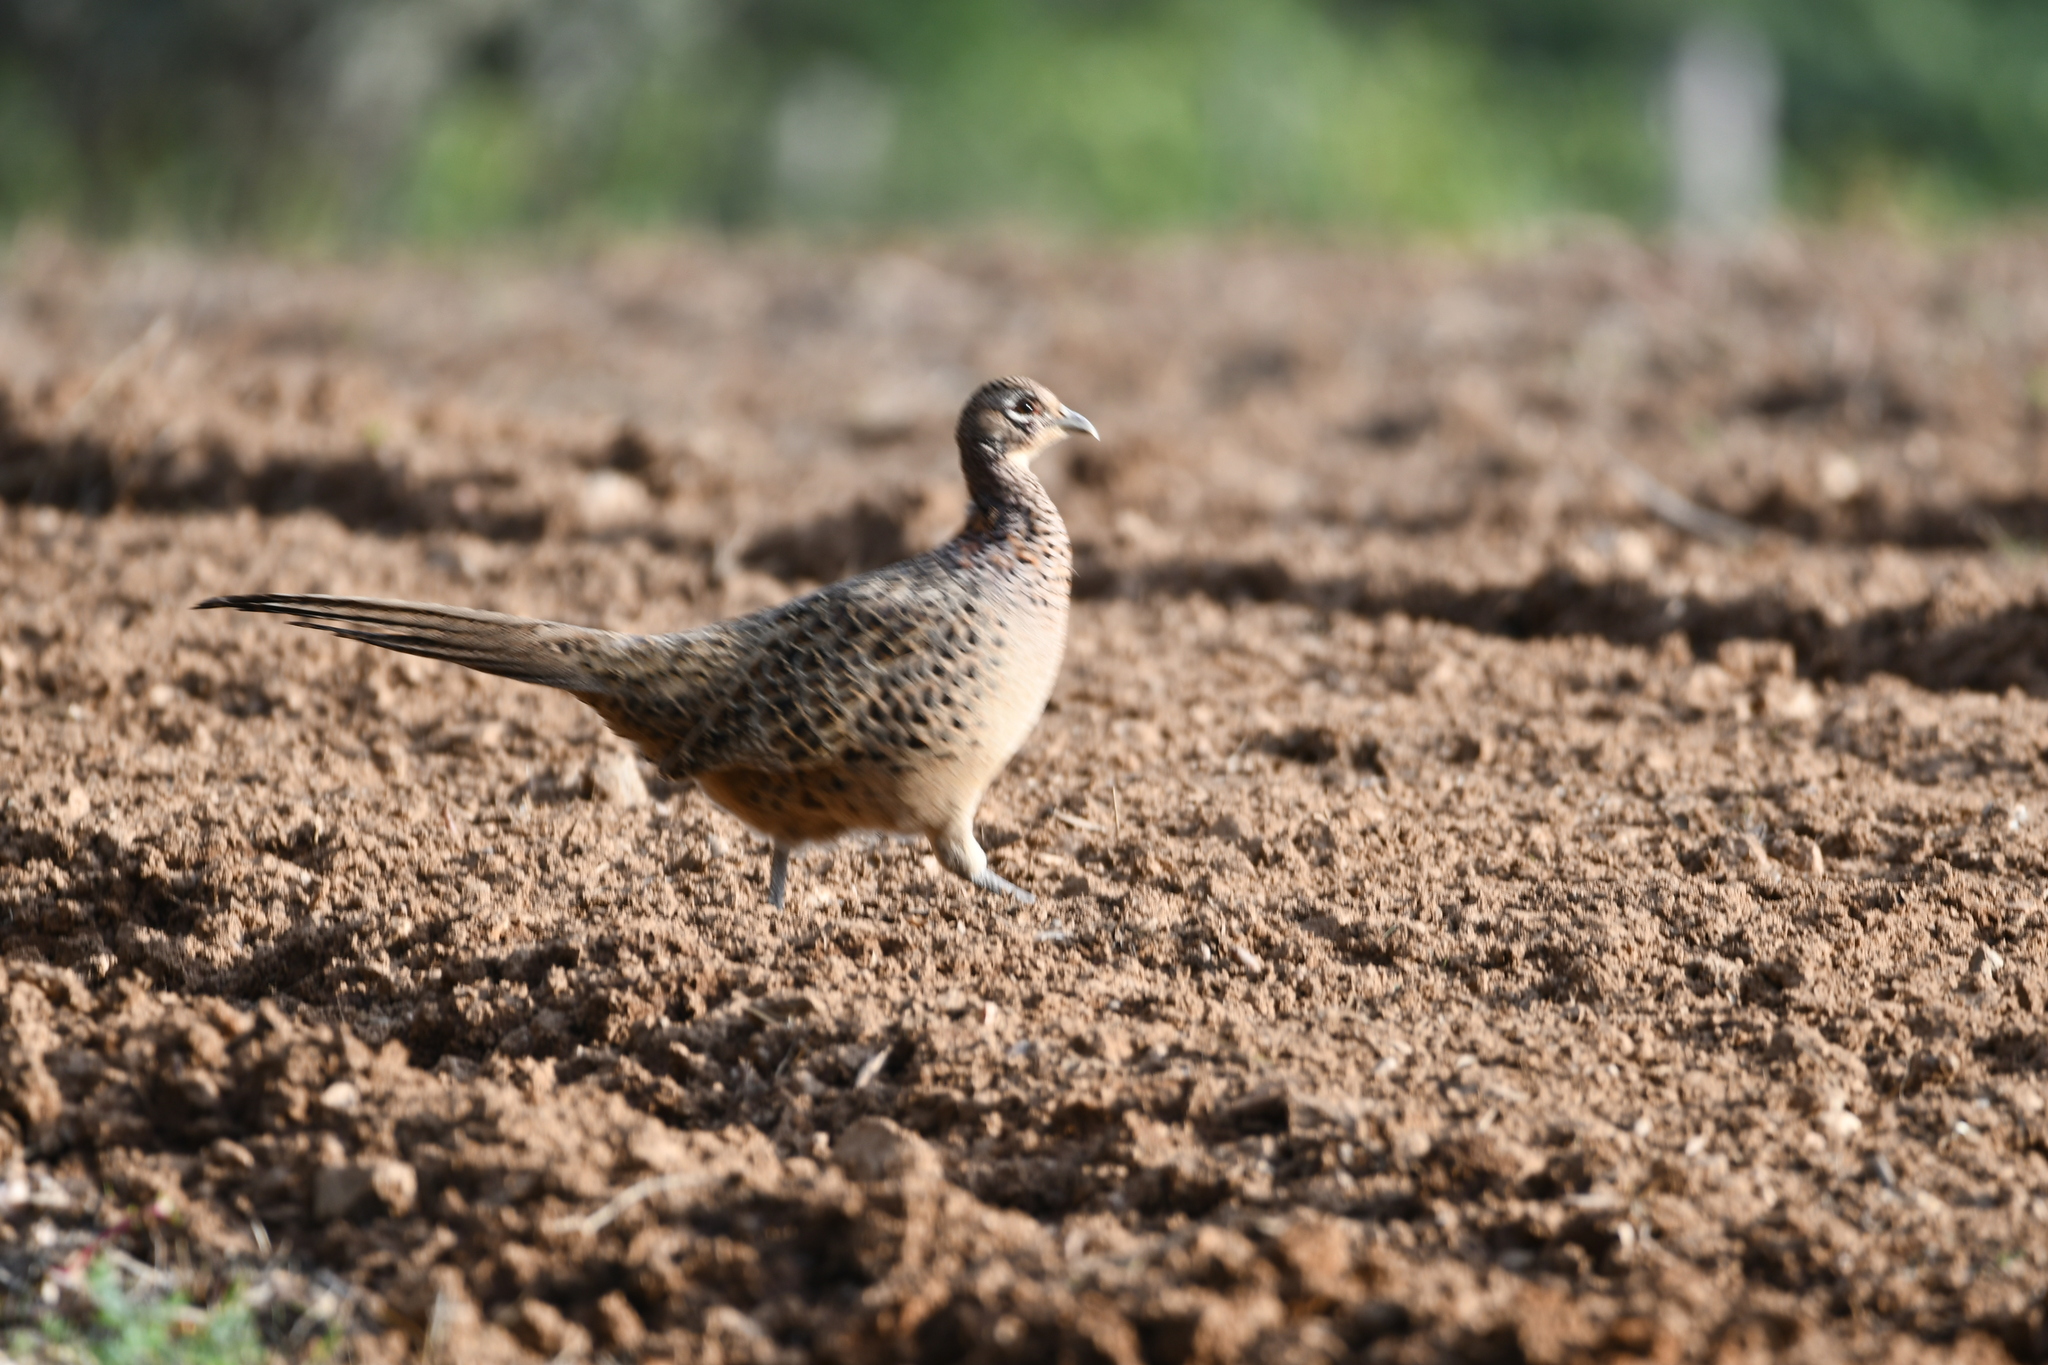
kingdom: Animalia
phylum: Chordata
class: Aves
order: Galliformes
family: Phasianidae
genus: Phasianus
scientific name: Phasianus colchicus
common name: Common pheasant
